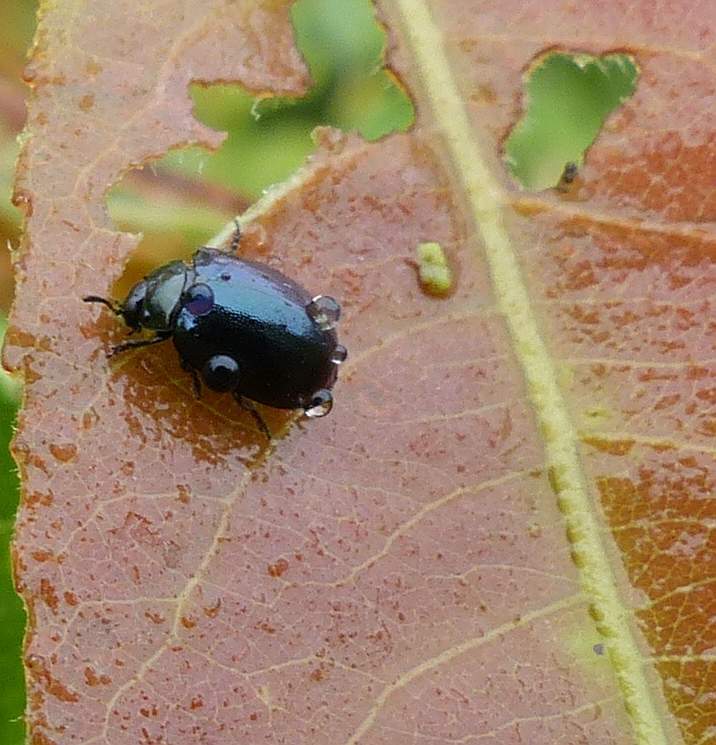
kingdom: Animalia
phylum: Arthropoda
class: Insecta
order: Coleoptera
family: Chrysomelidae
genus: Plagiodera
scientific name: Plagiodera versicolora
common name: Imported willow leaf beetle
